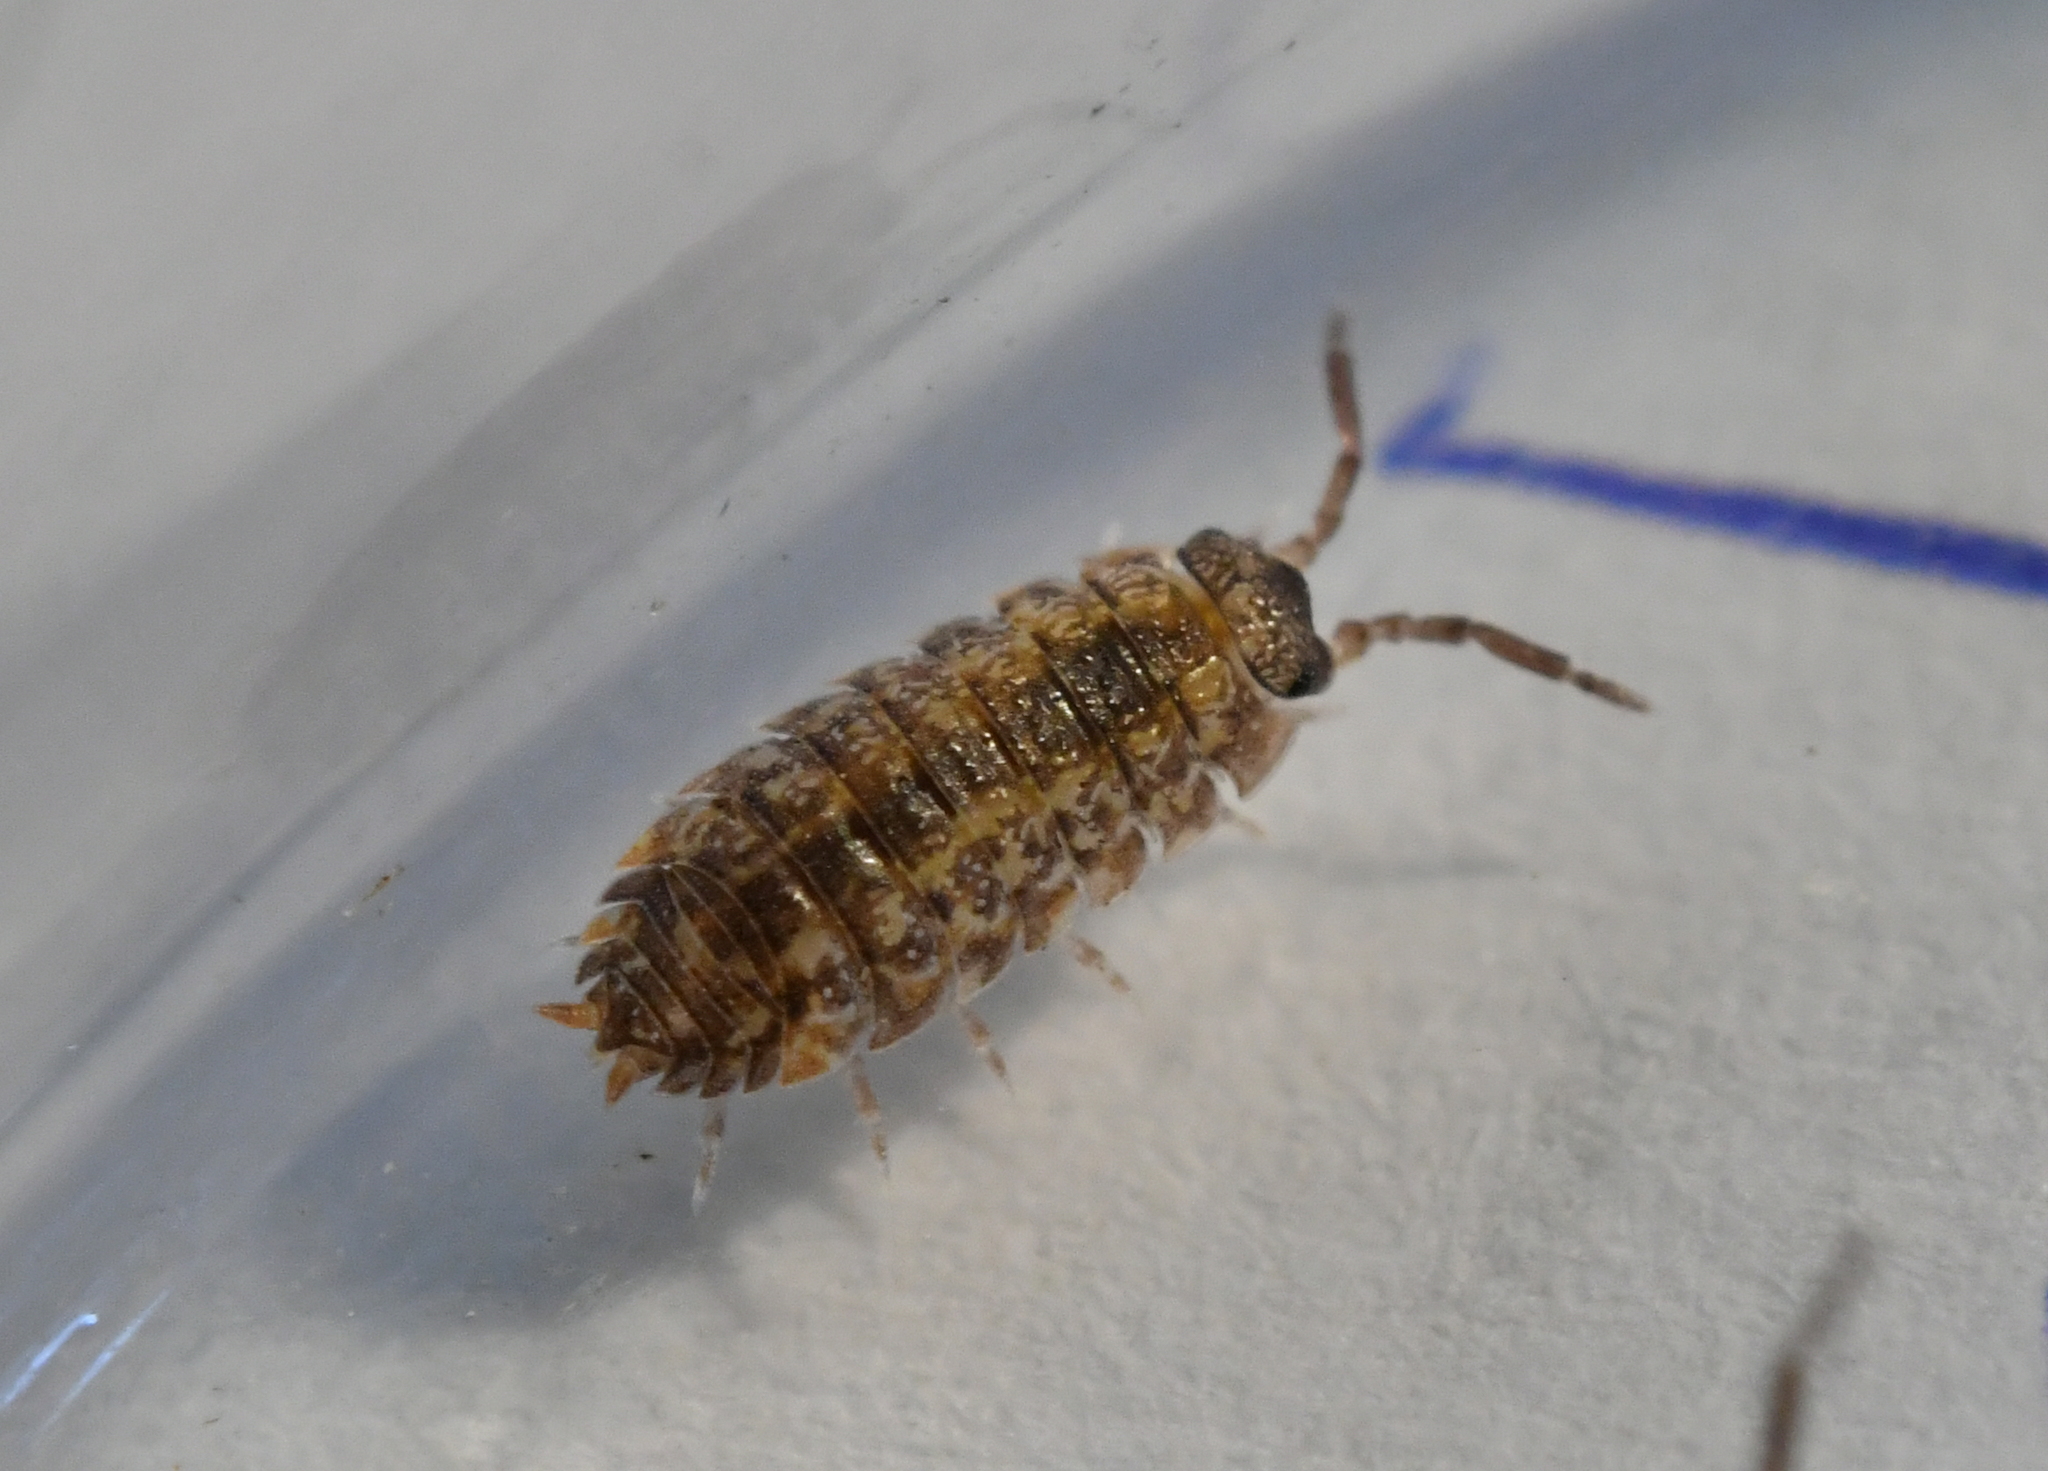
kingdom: Animalia
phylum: Arthropoda
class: Malacostraca
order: Isopoda
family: Porcellionidae
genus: Porcellio
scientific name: Porcellio scaber
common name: Common rough woodlouse
